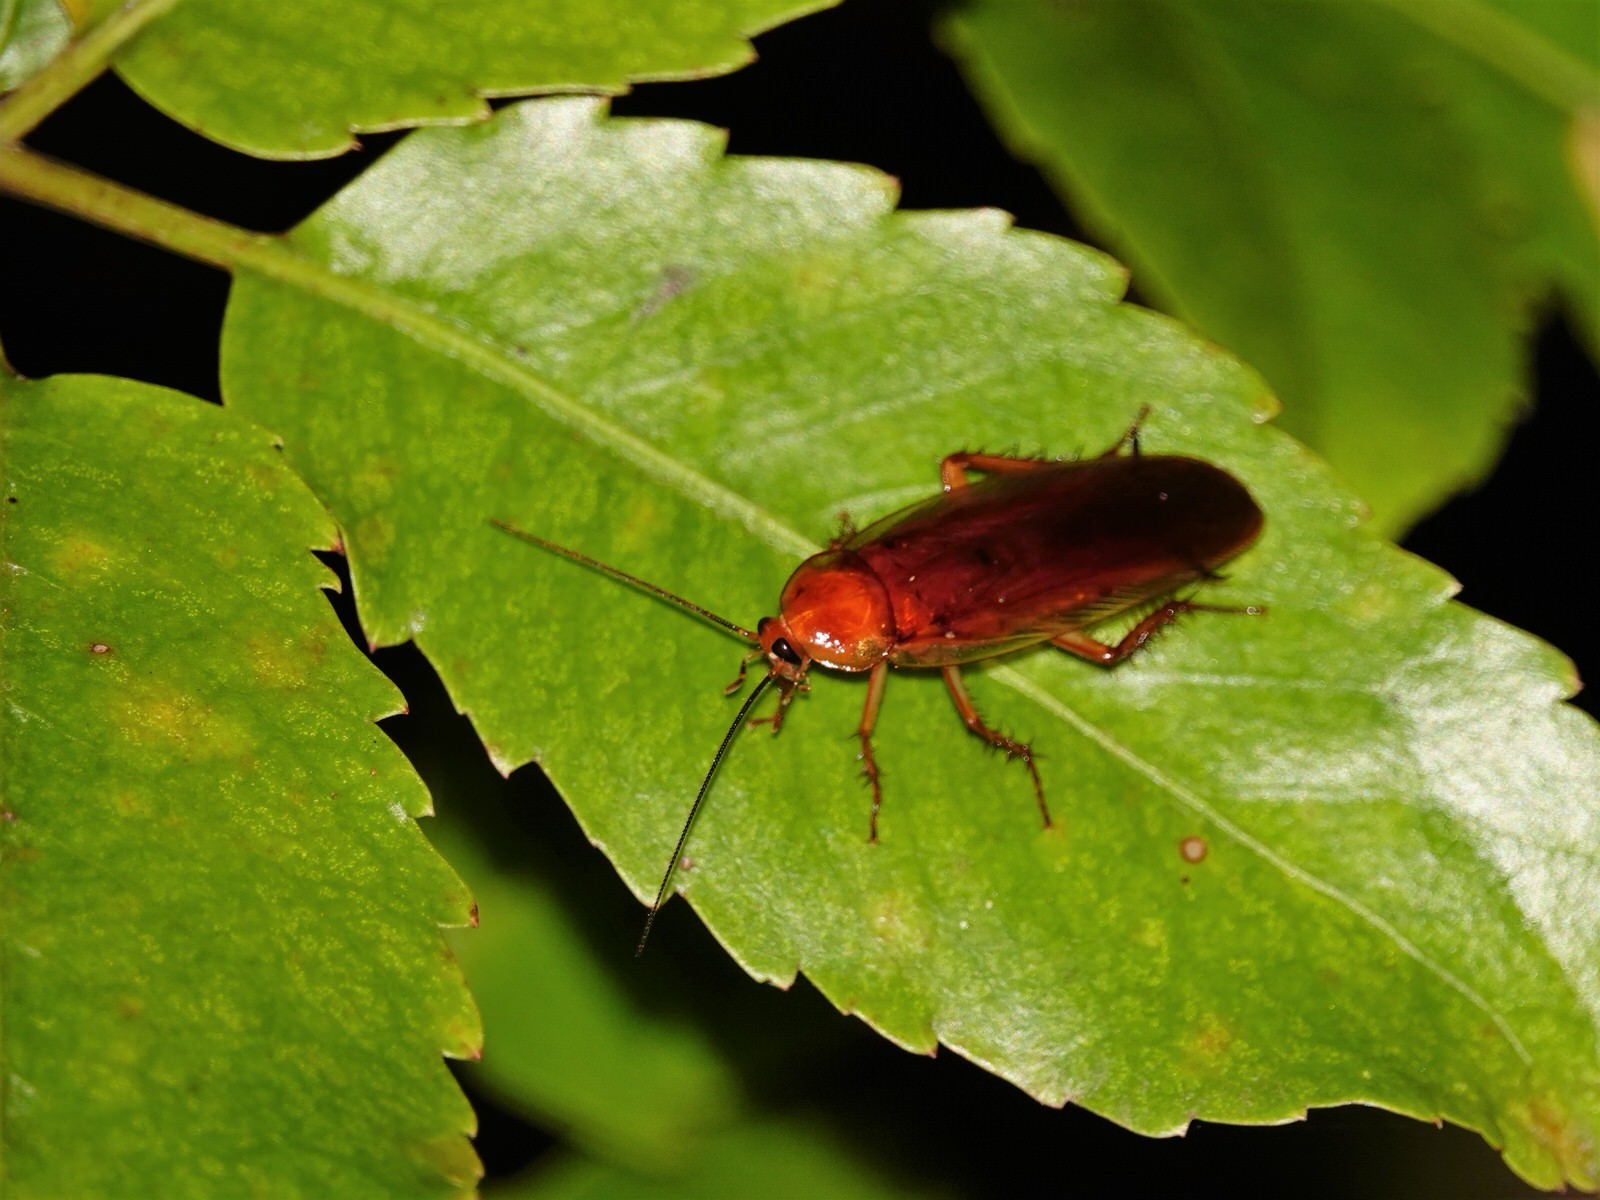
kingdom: Animalia
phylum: Arthropoda
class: Insecta
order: Blattodea
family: Ectobiidae
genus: Neotemnopteryx
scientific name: Neotemnopteryx fulva
